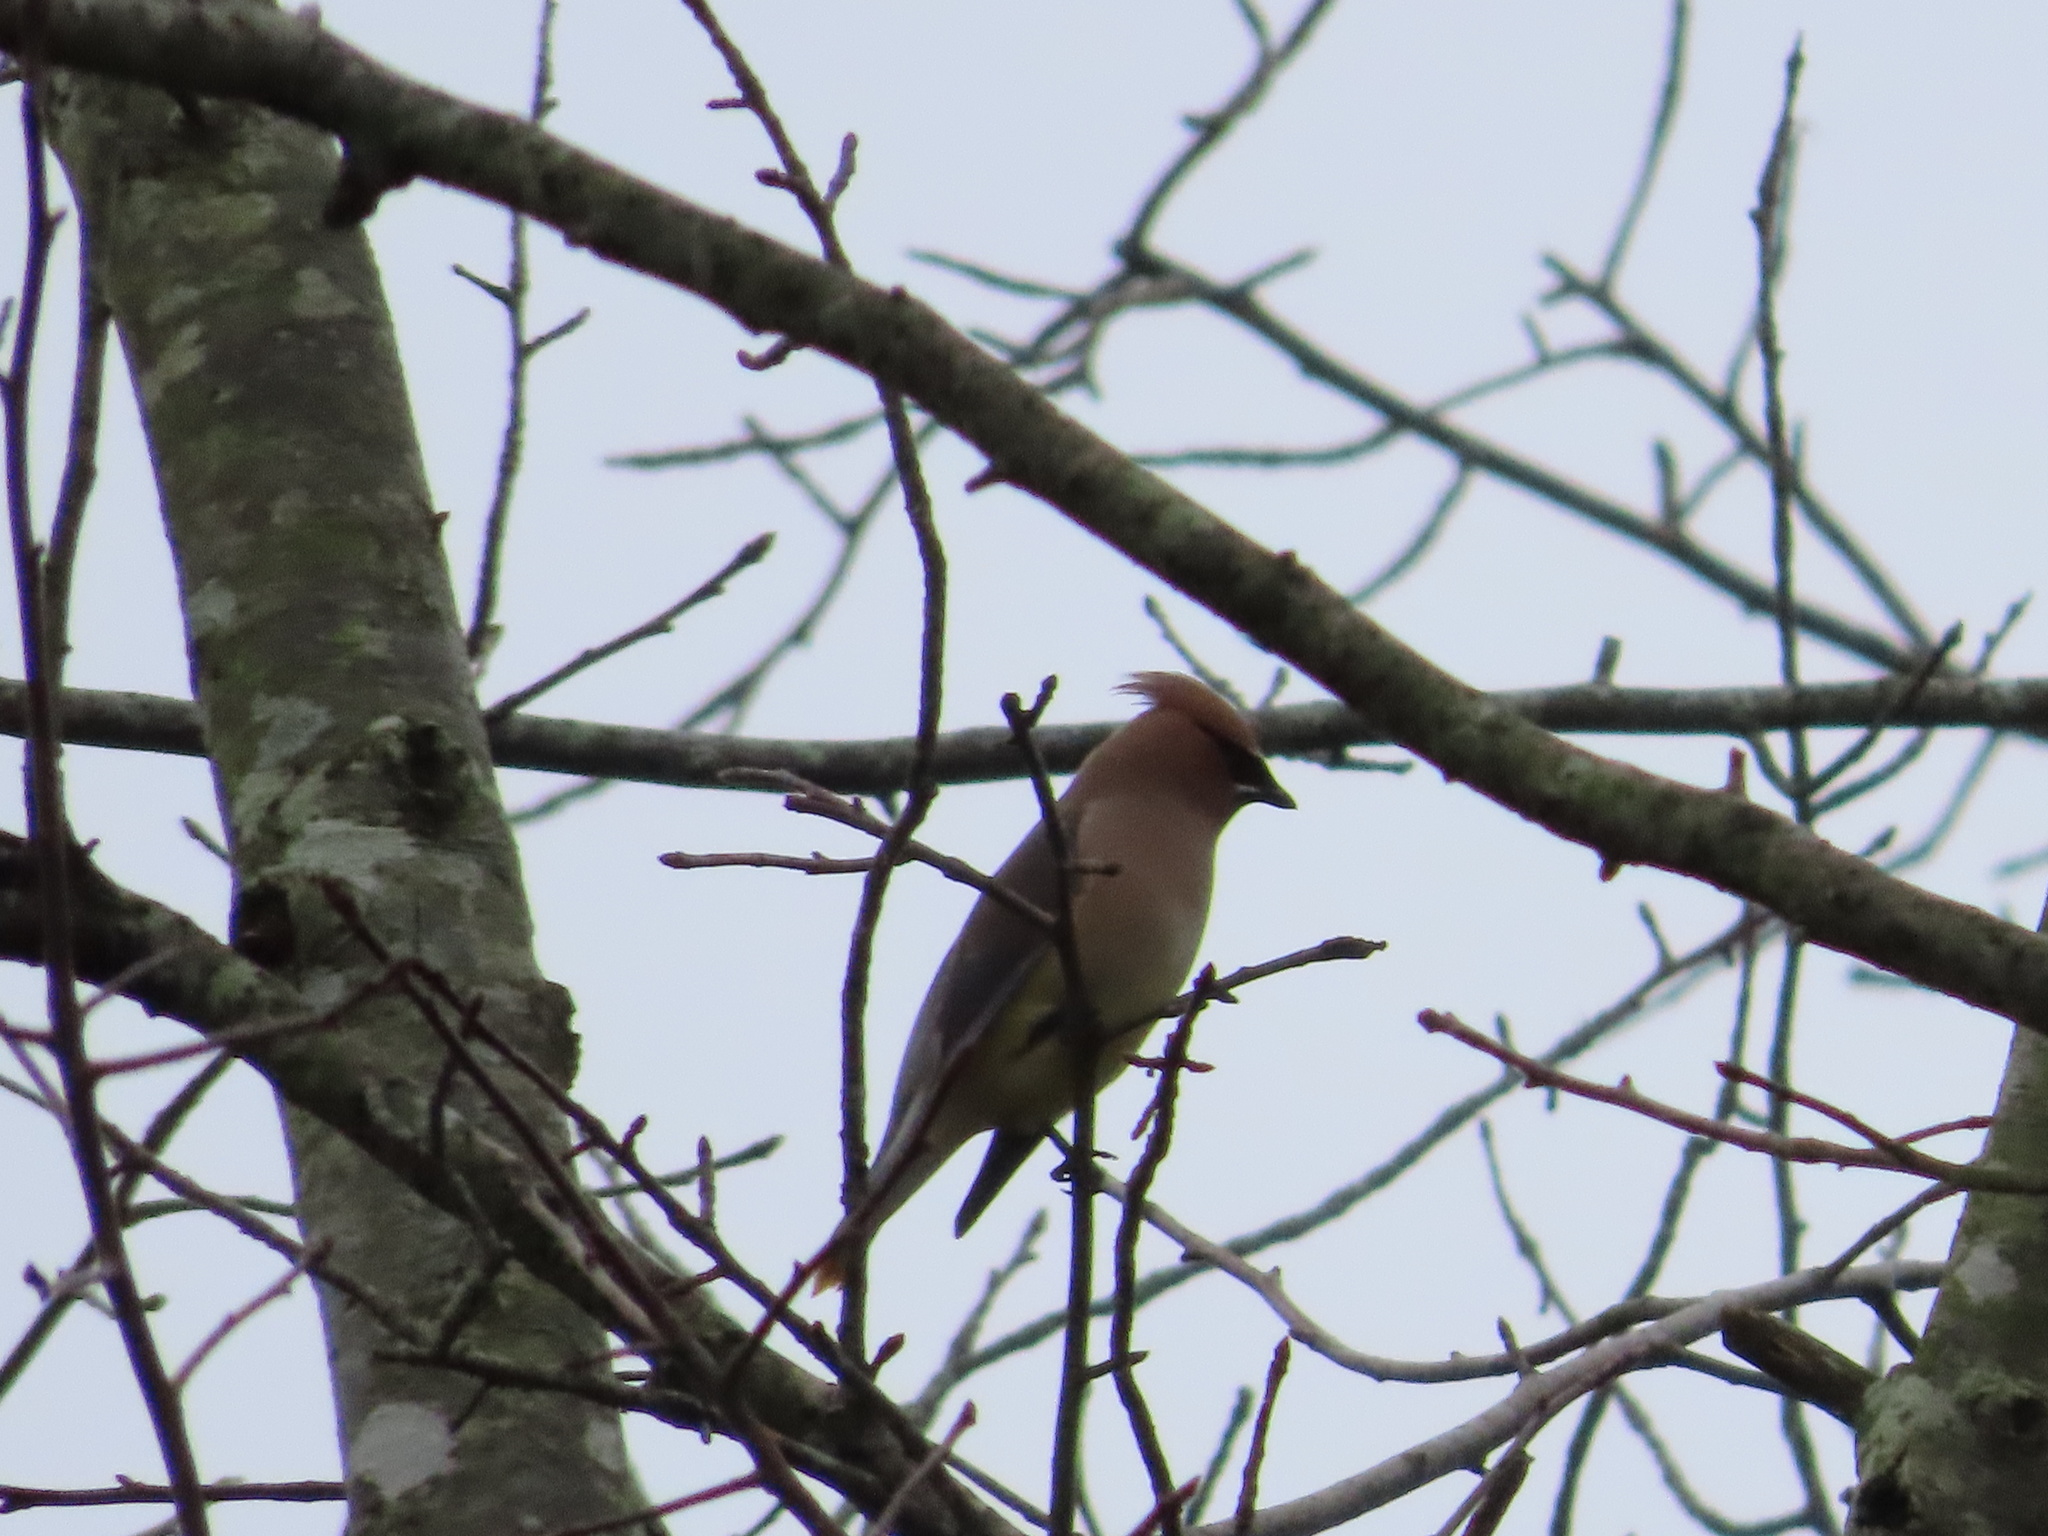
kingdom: Animalia
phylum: Chordata
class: Aves
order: Passeriformes
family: Bombycillidae
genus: Bombycilla
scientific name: Bombycilla cedrorum
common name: Cedar waxwing
